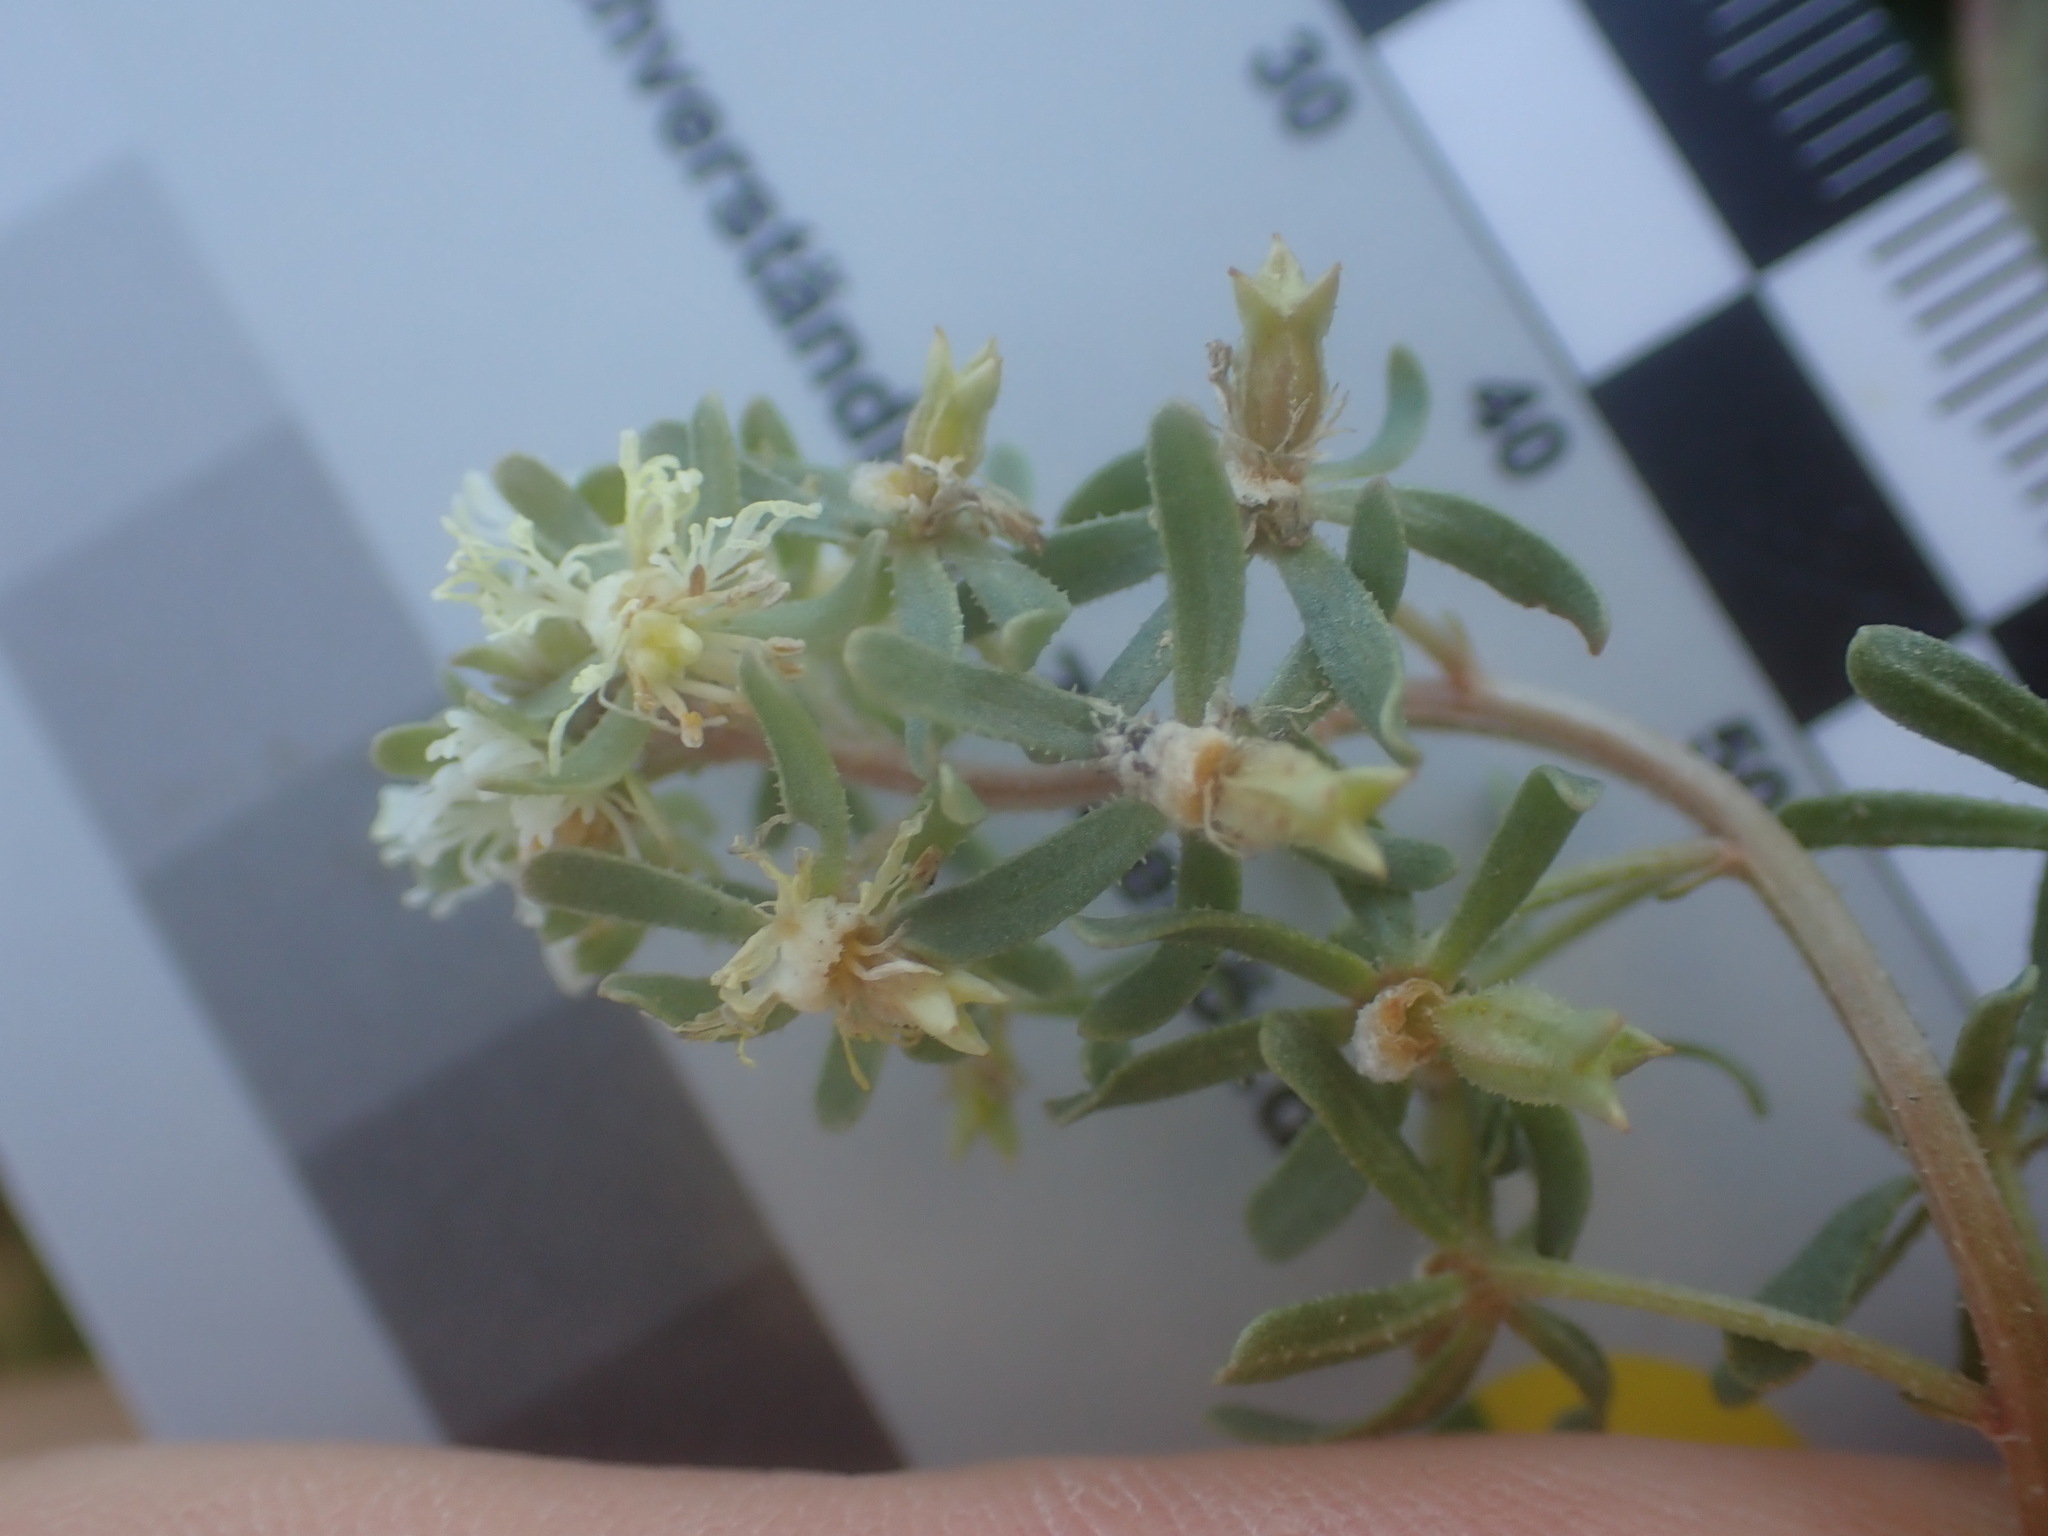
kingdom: Plantae
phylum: Tracheophyta
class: Magnoliopsida
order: Brassicales
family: Resedaceae
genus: Reseda
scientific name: Reseda phyteuma
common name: Corn mignonette
